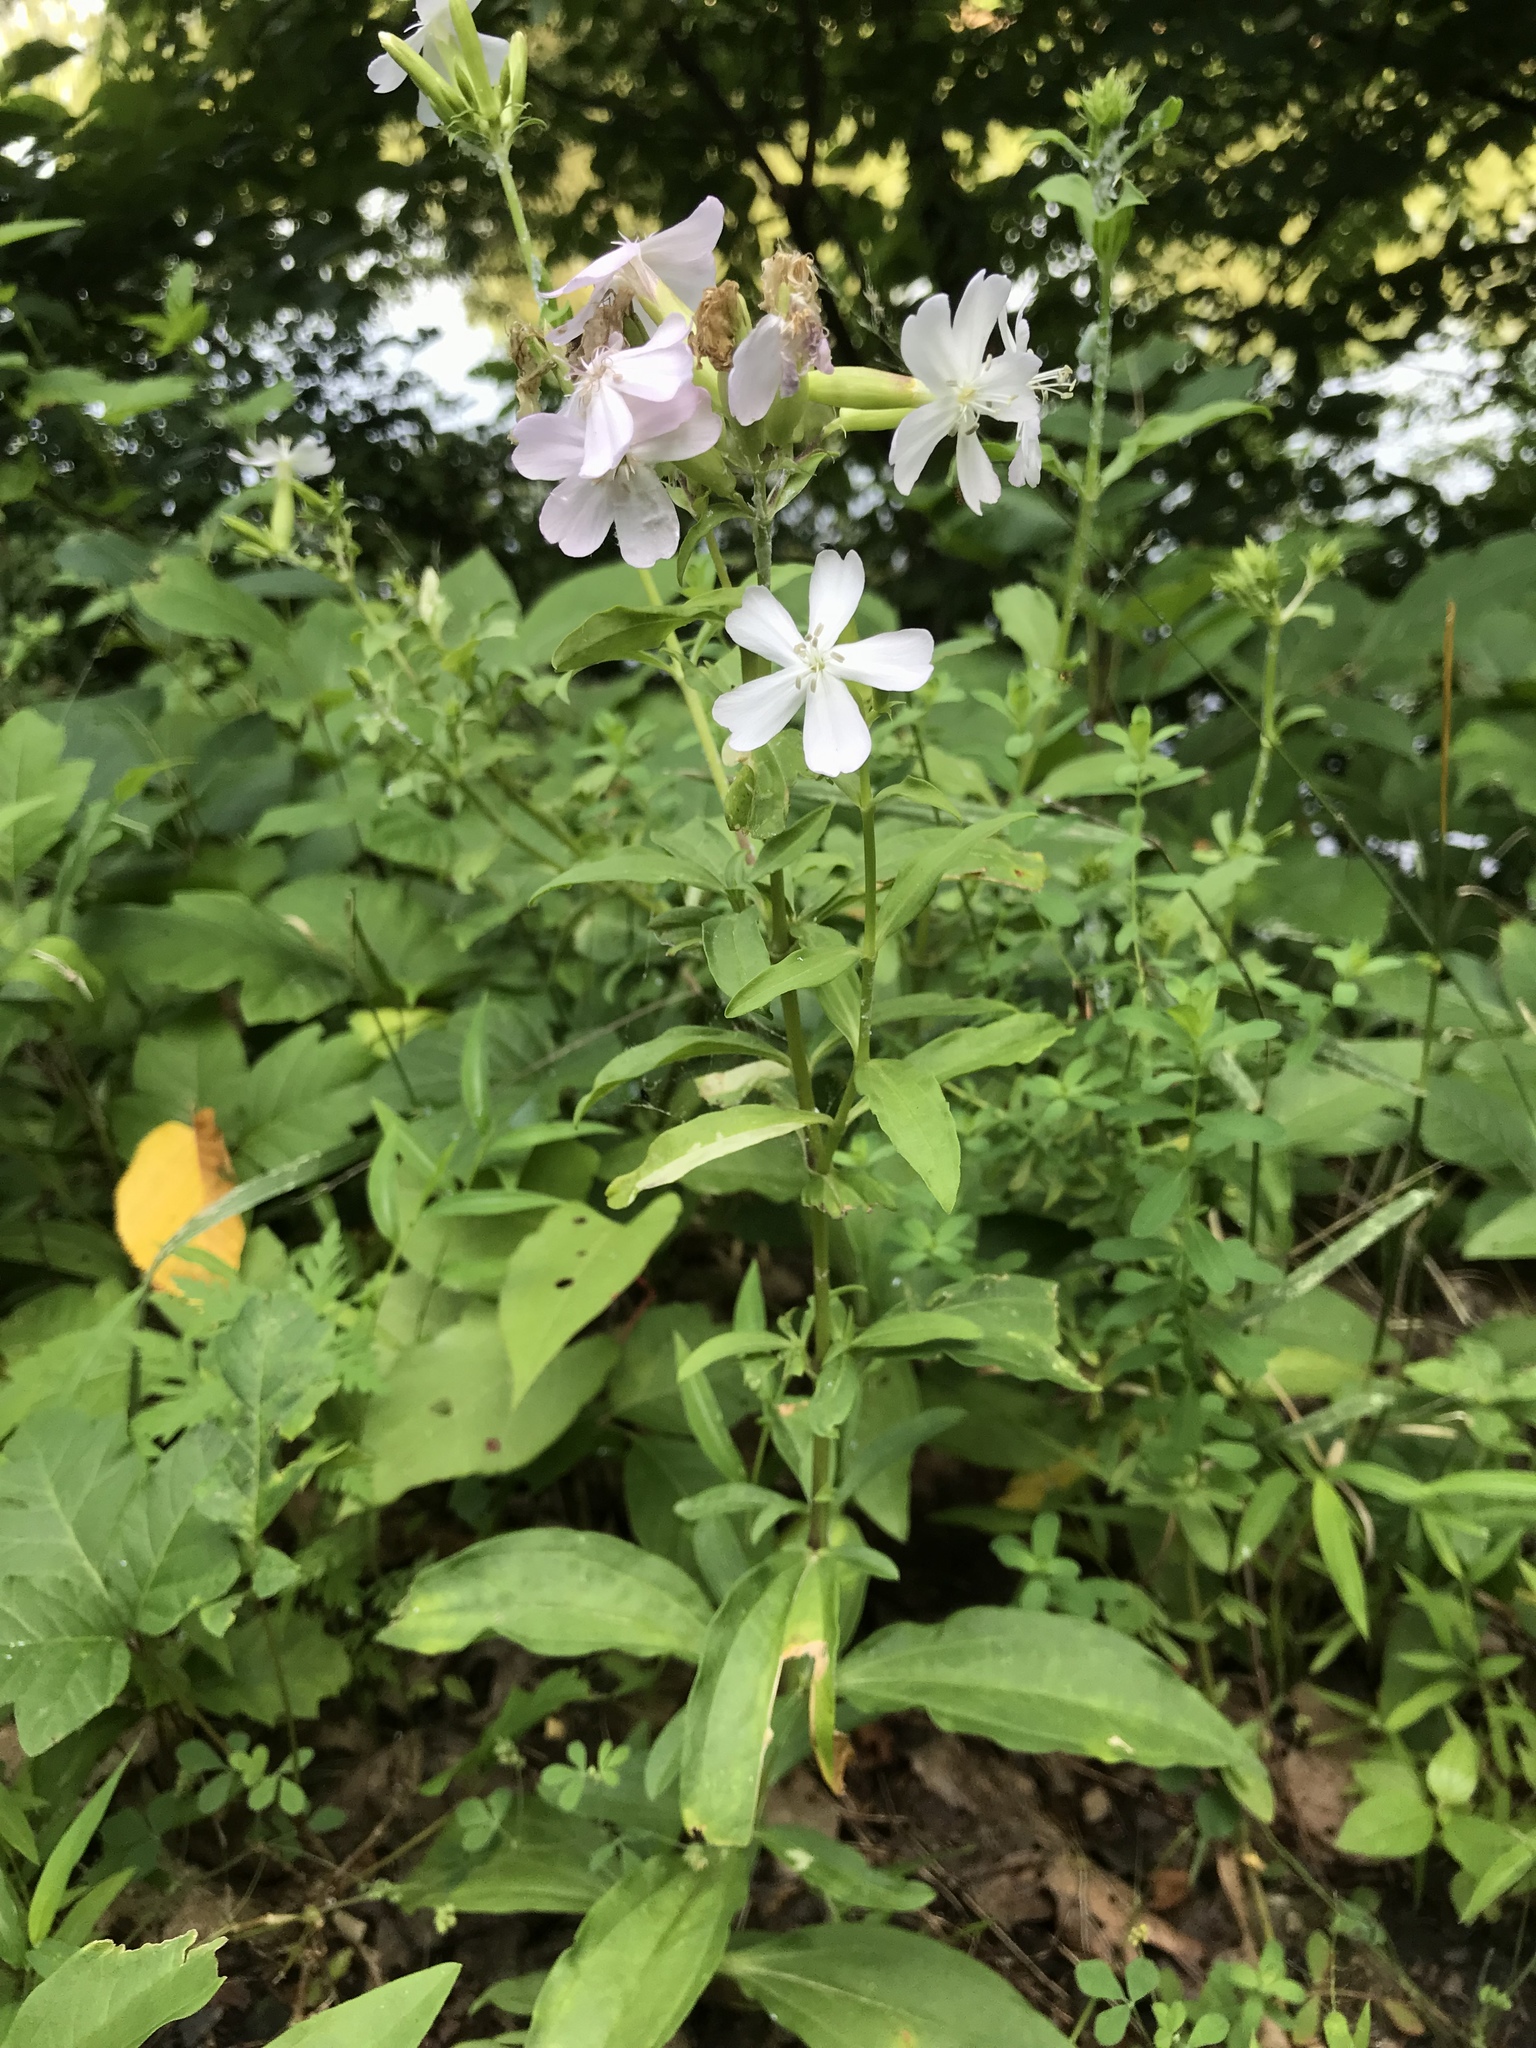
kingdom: Plantae
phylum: Tracheophyta
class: Magnoliopsida
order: Caryophyllales
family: Caryophyllaceae
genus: Saponaria
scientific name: Saponaria officinalis
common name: Soapwort
